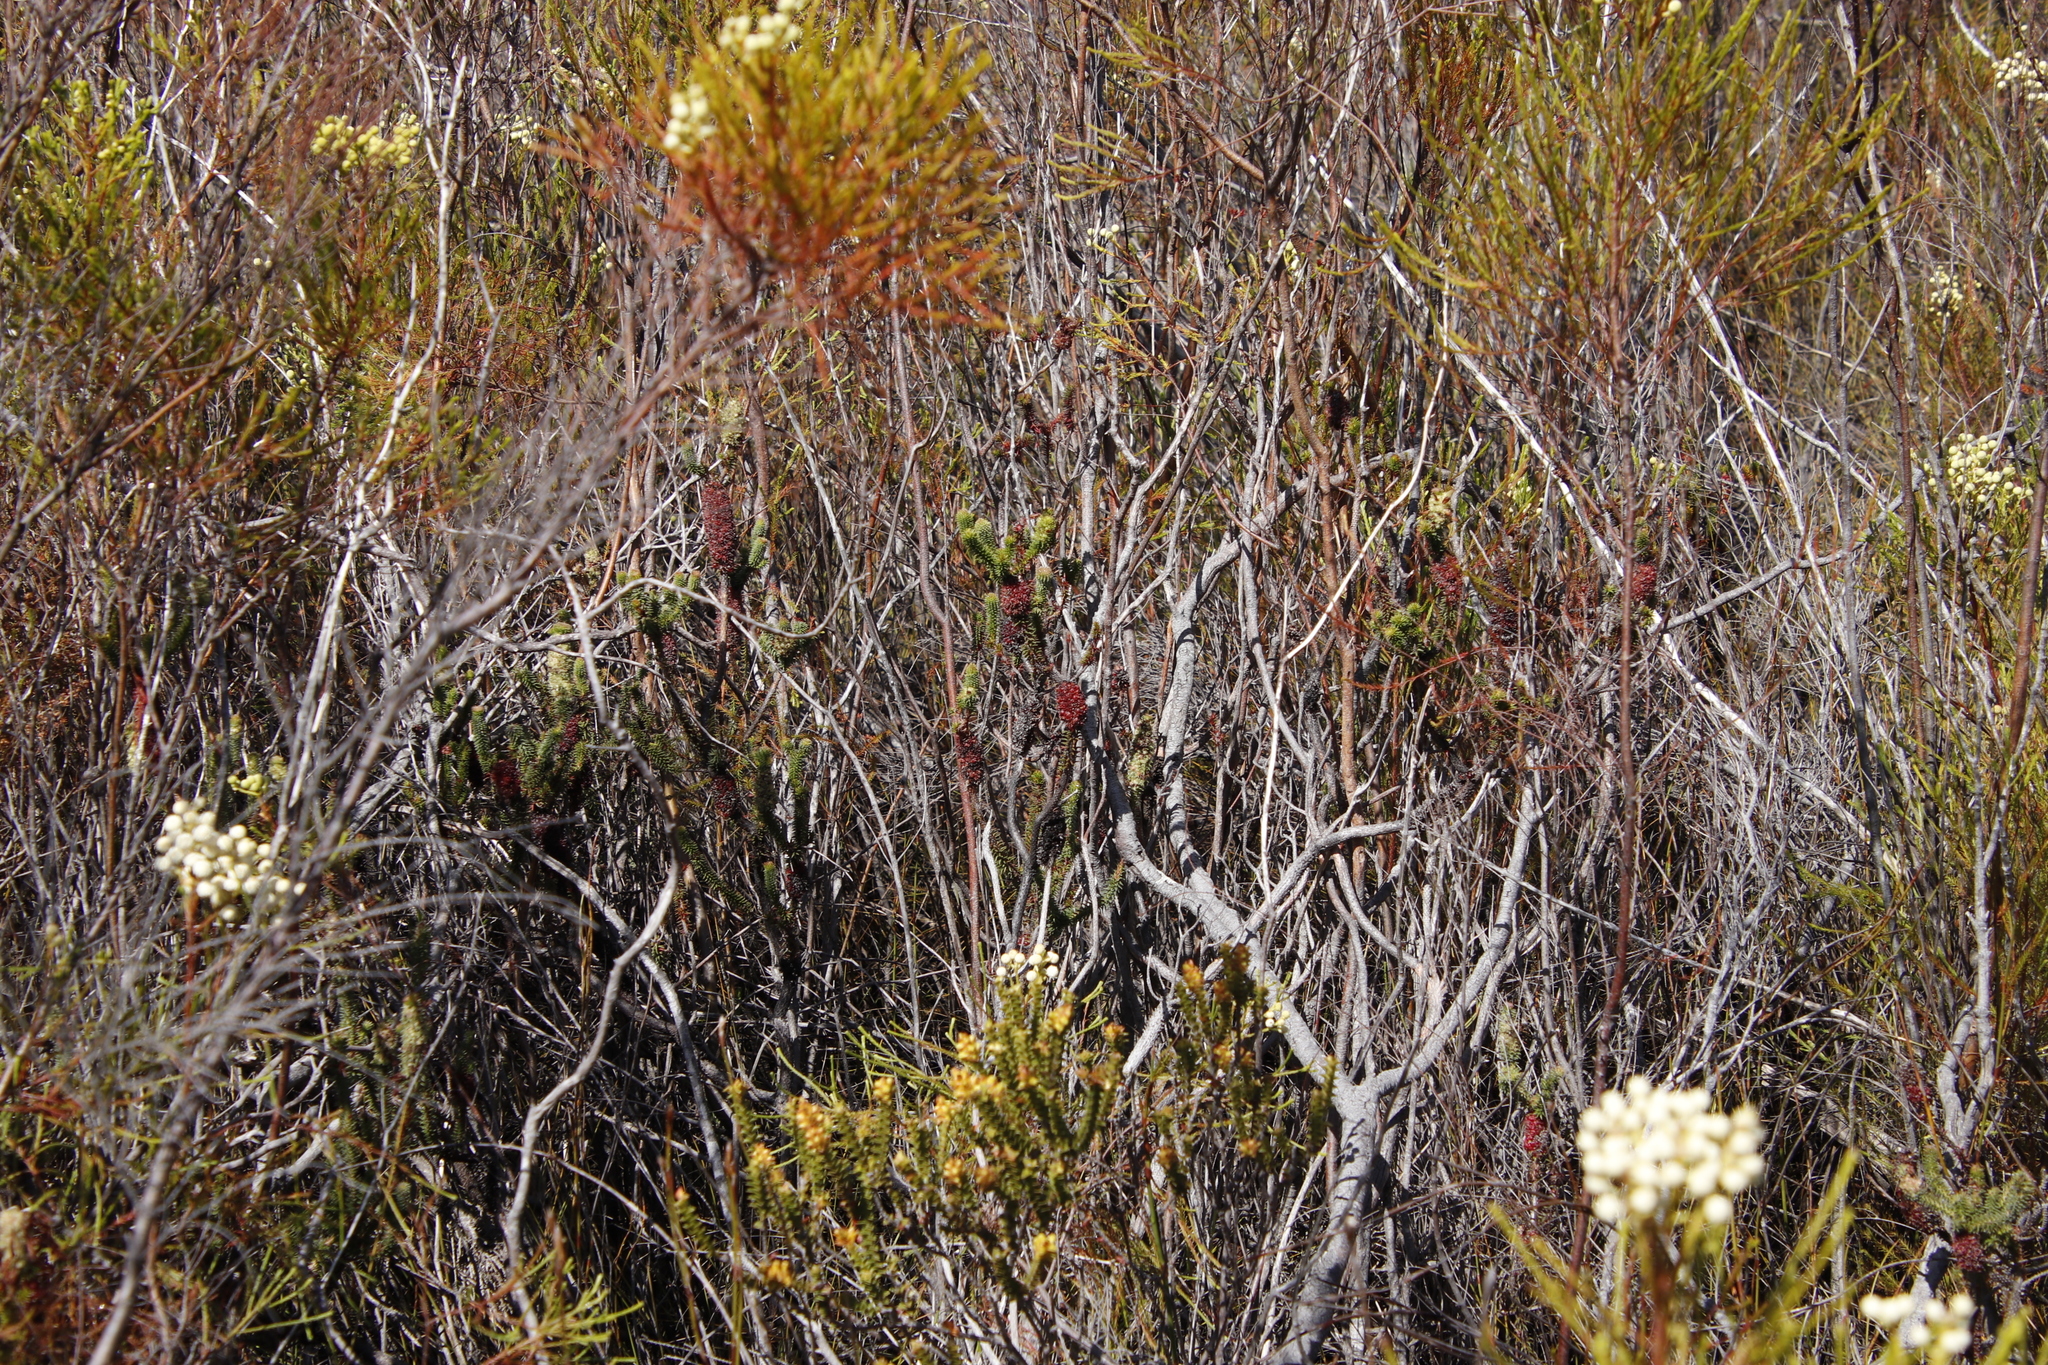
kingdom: Plantae
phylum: Tracheophyta
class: Magnoliopsida
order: Ericales
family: Ericaceae
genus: Erica
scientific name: Erica sessiliflora
